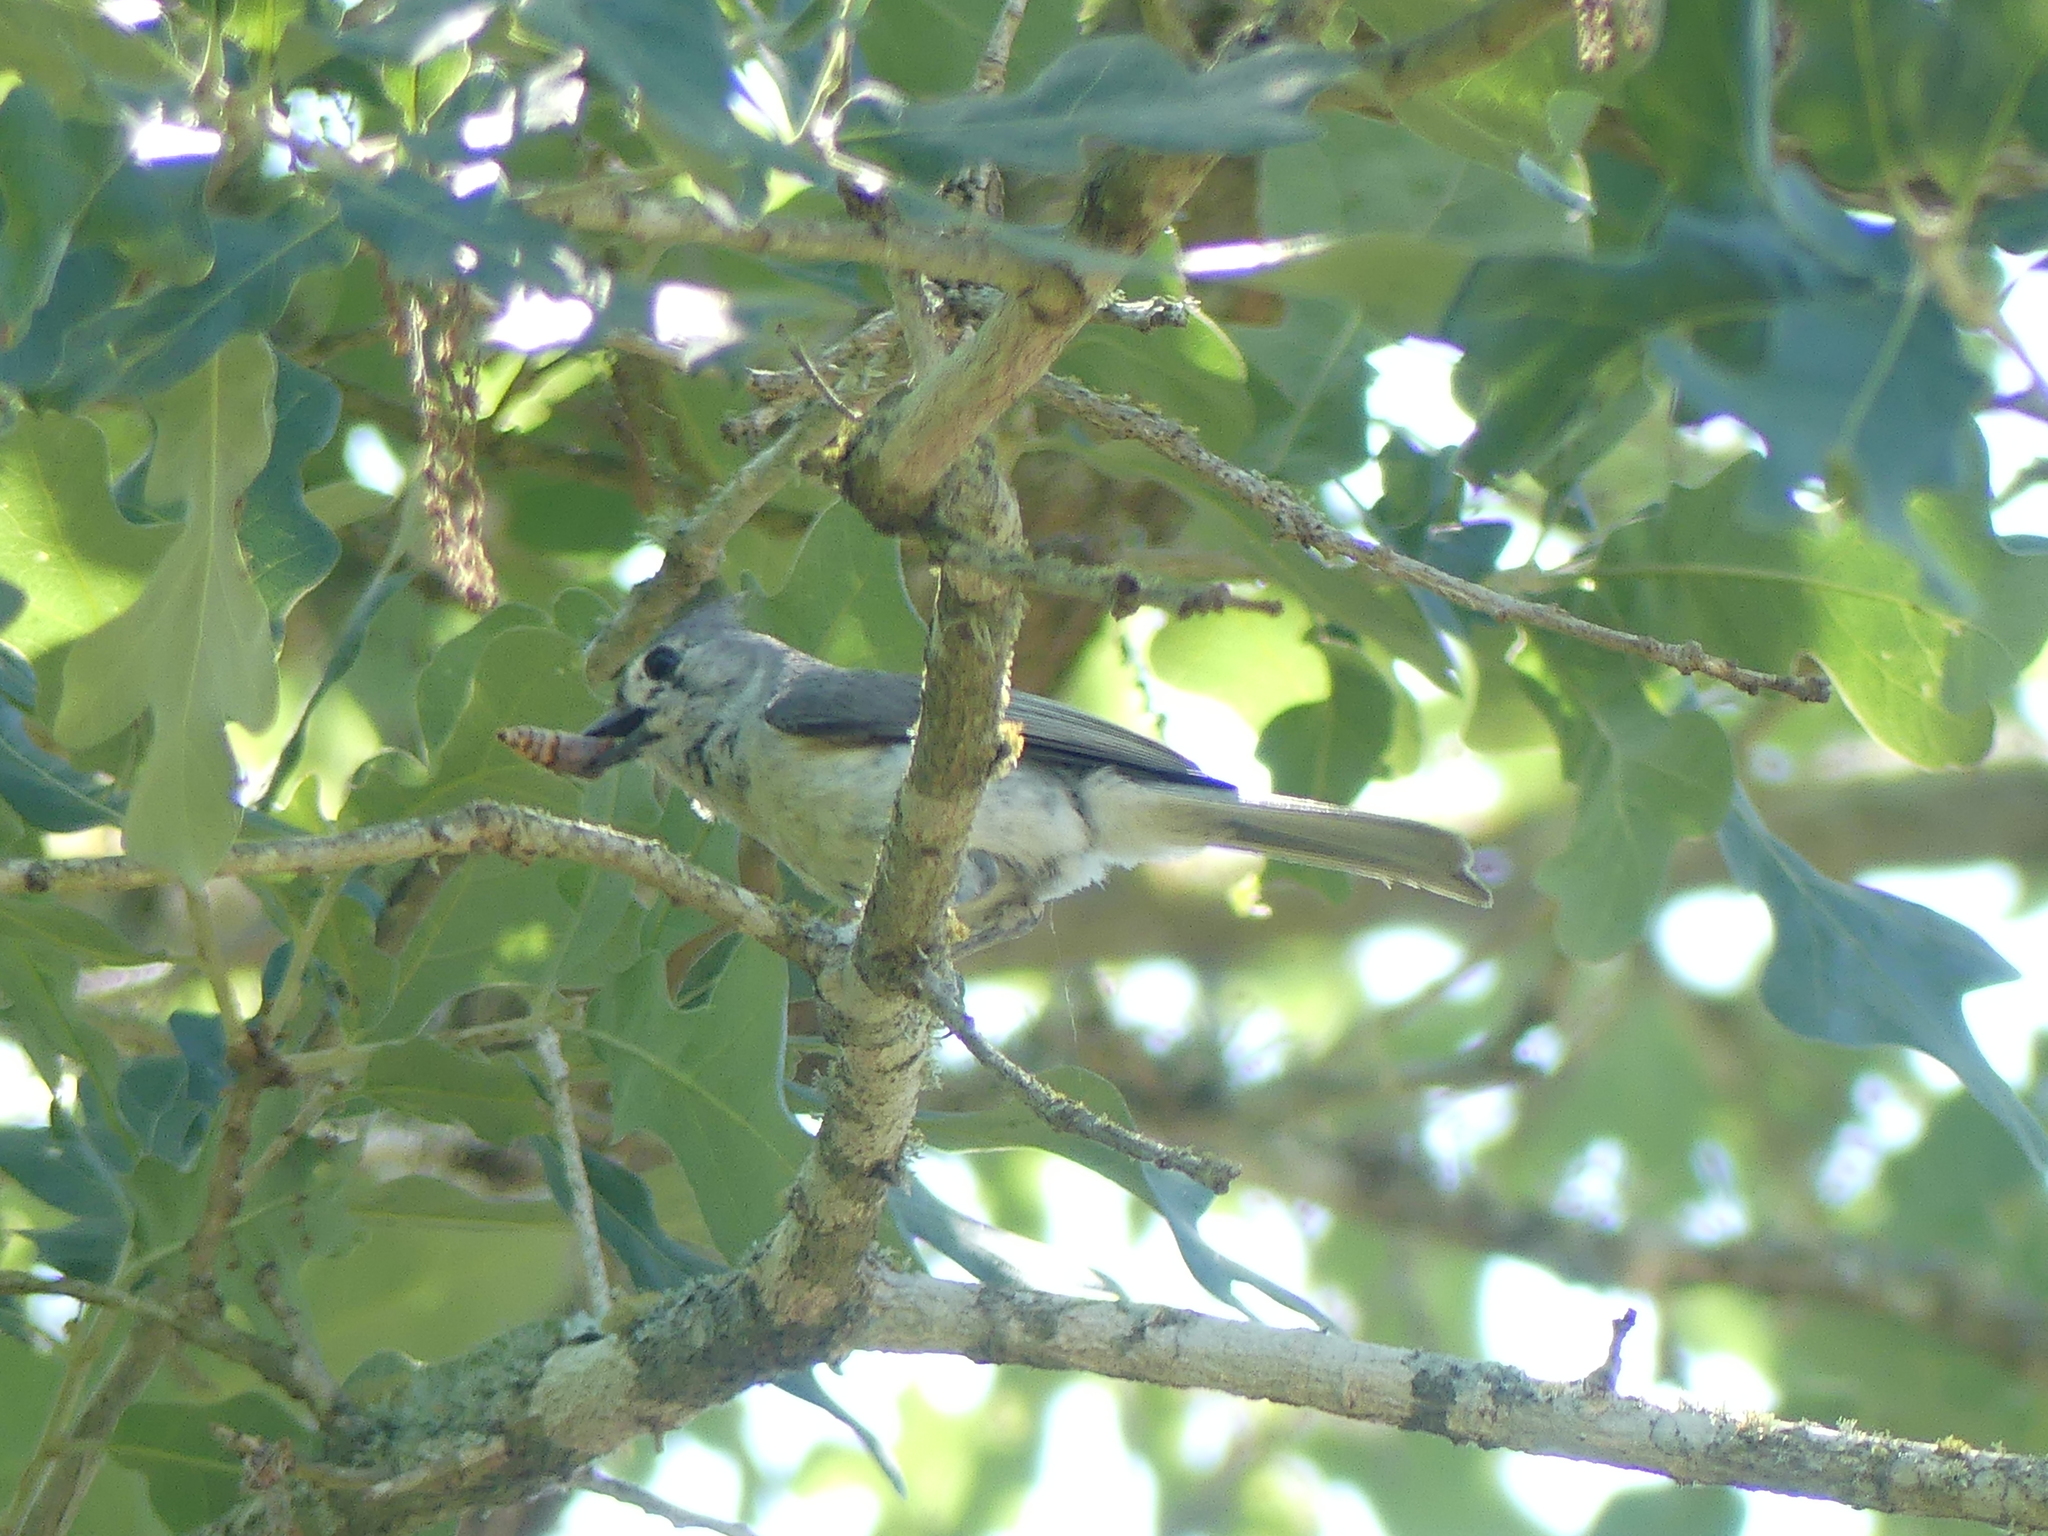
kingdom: Animalia
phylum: Chordata
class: Aves
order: Passeriformes
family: Paridae
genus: Baeolophus
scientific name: Baeolophus bicolor
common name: Tufted titmouse
